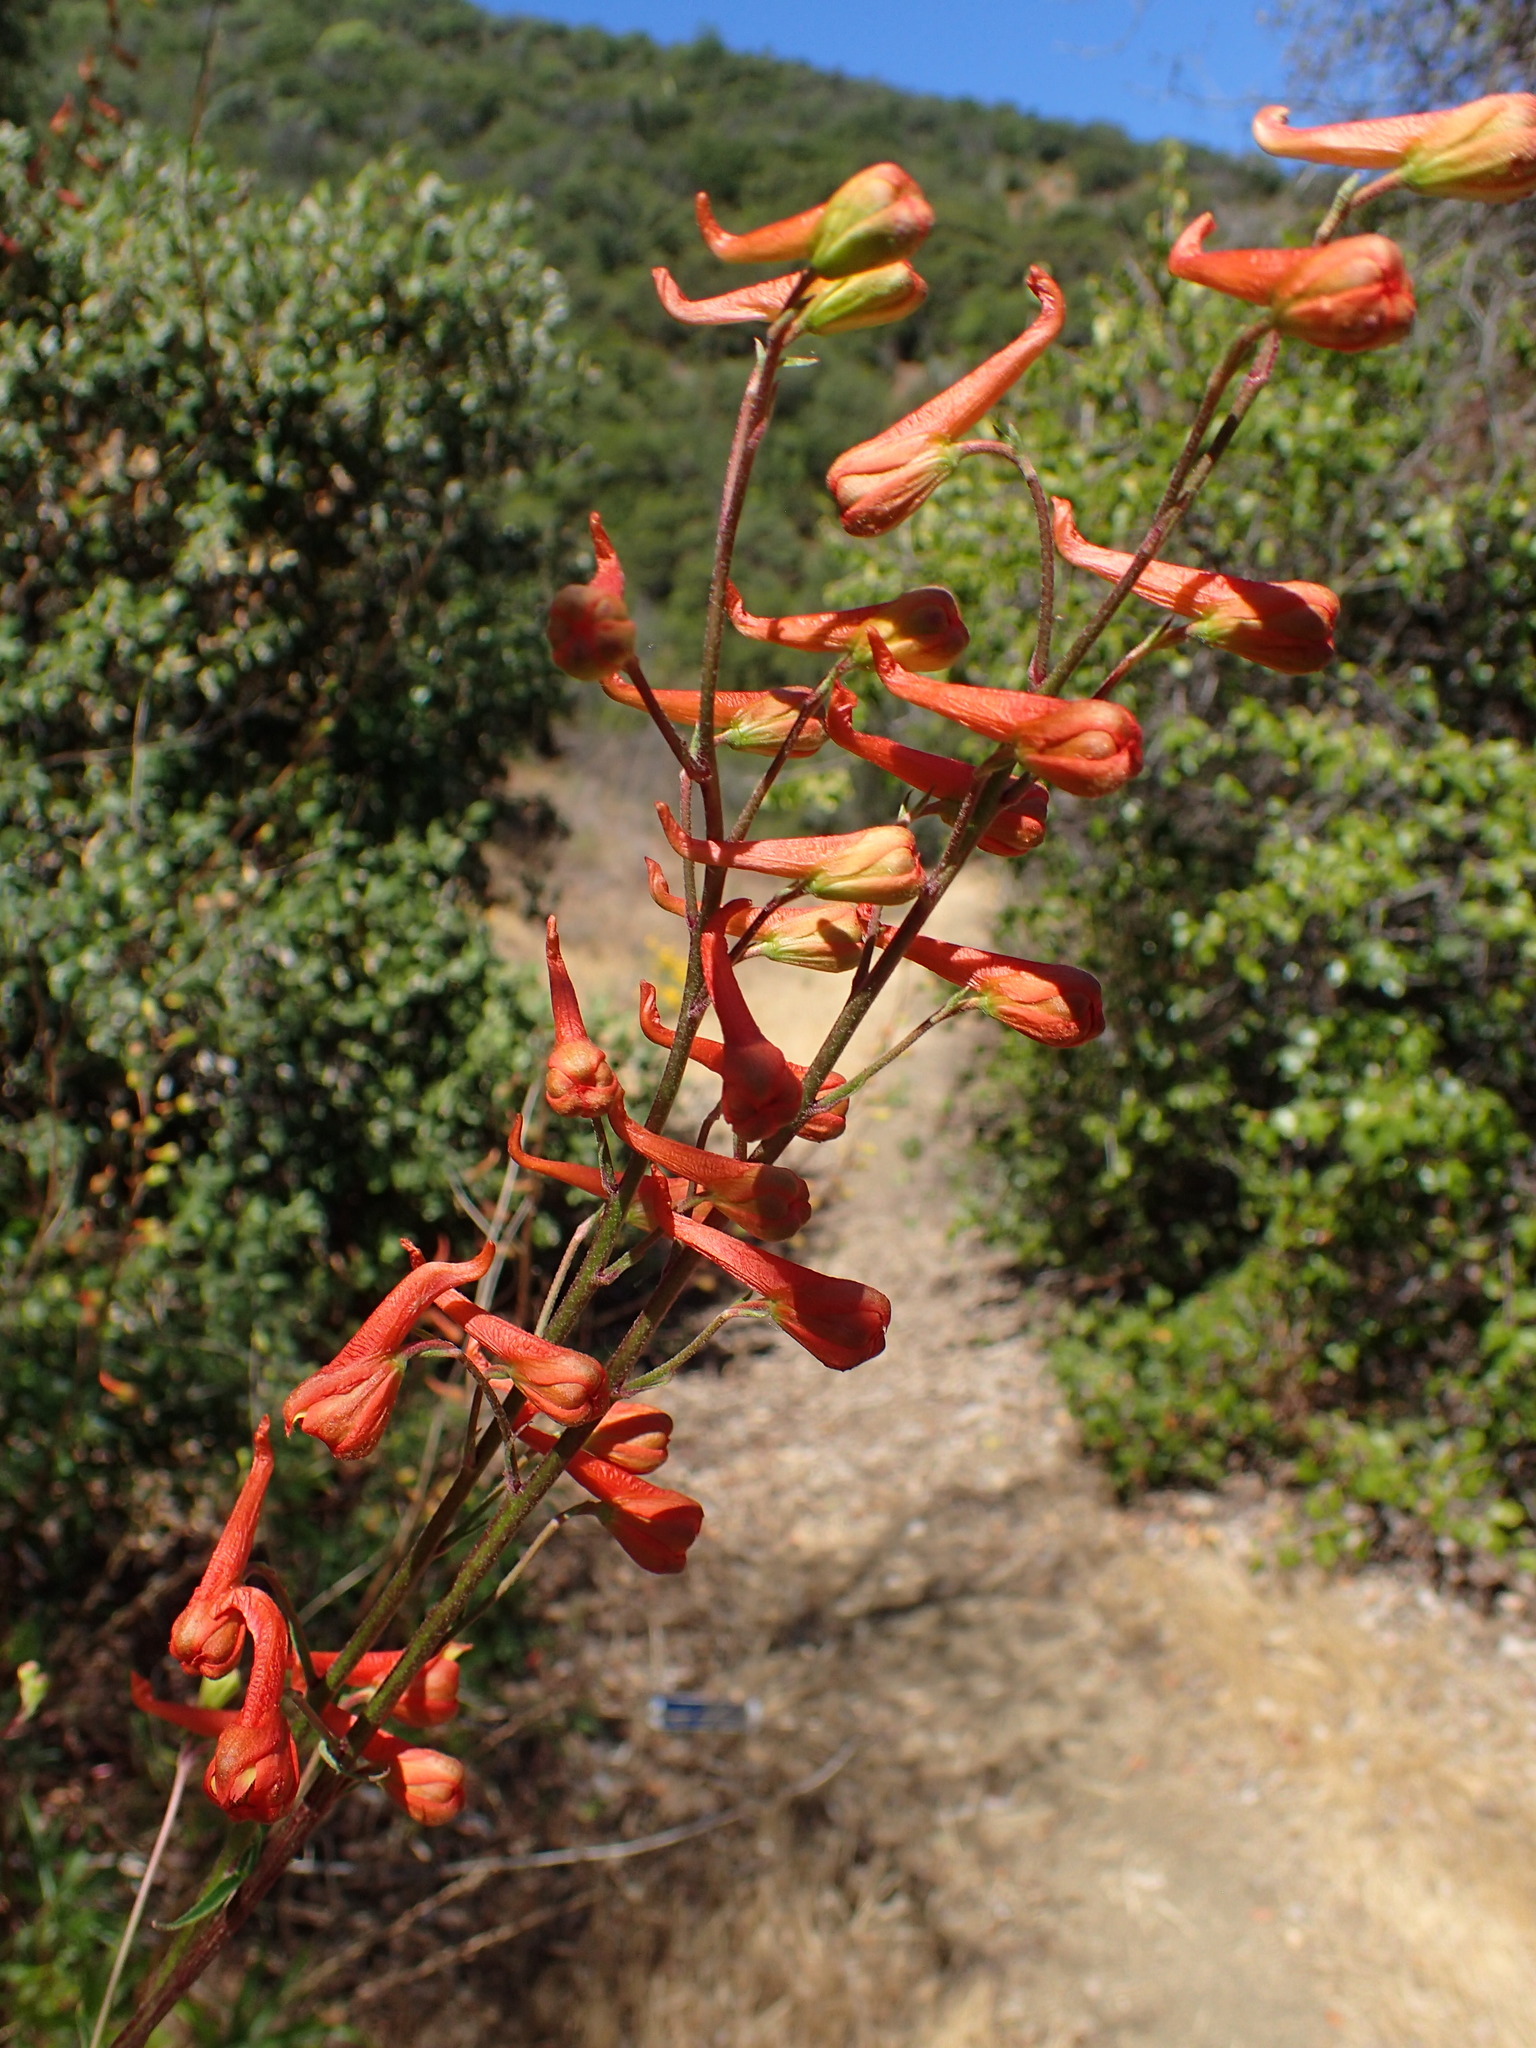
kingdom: Plantae
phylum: Tracheophyta
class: Magnoliopsida
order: Ranunculales
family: Ranunculaceae
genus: Delphinium
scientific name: Delphinium cardinale
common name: Scarlet larkspur
